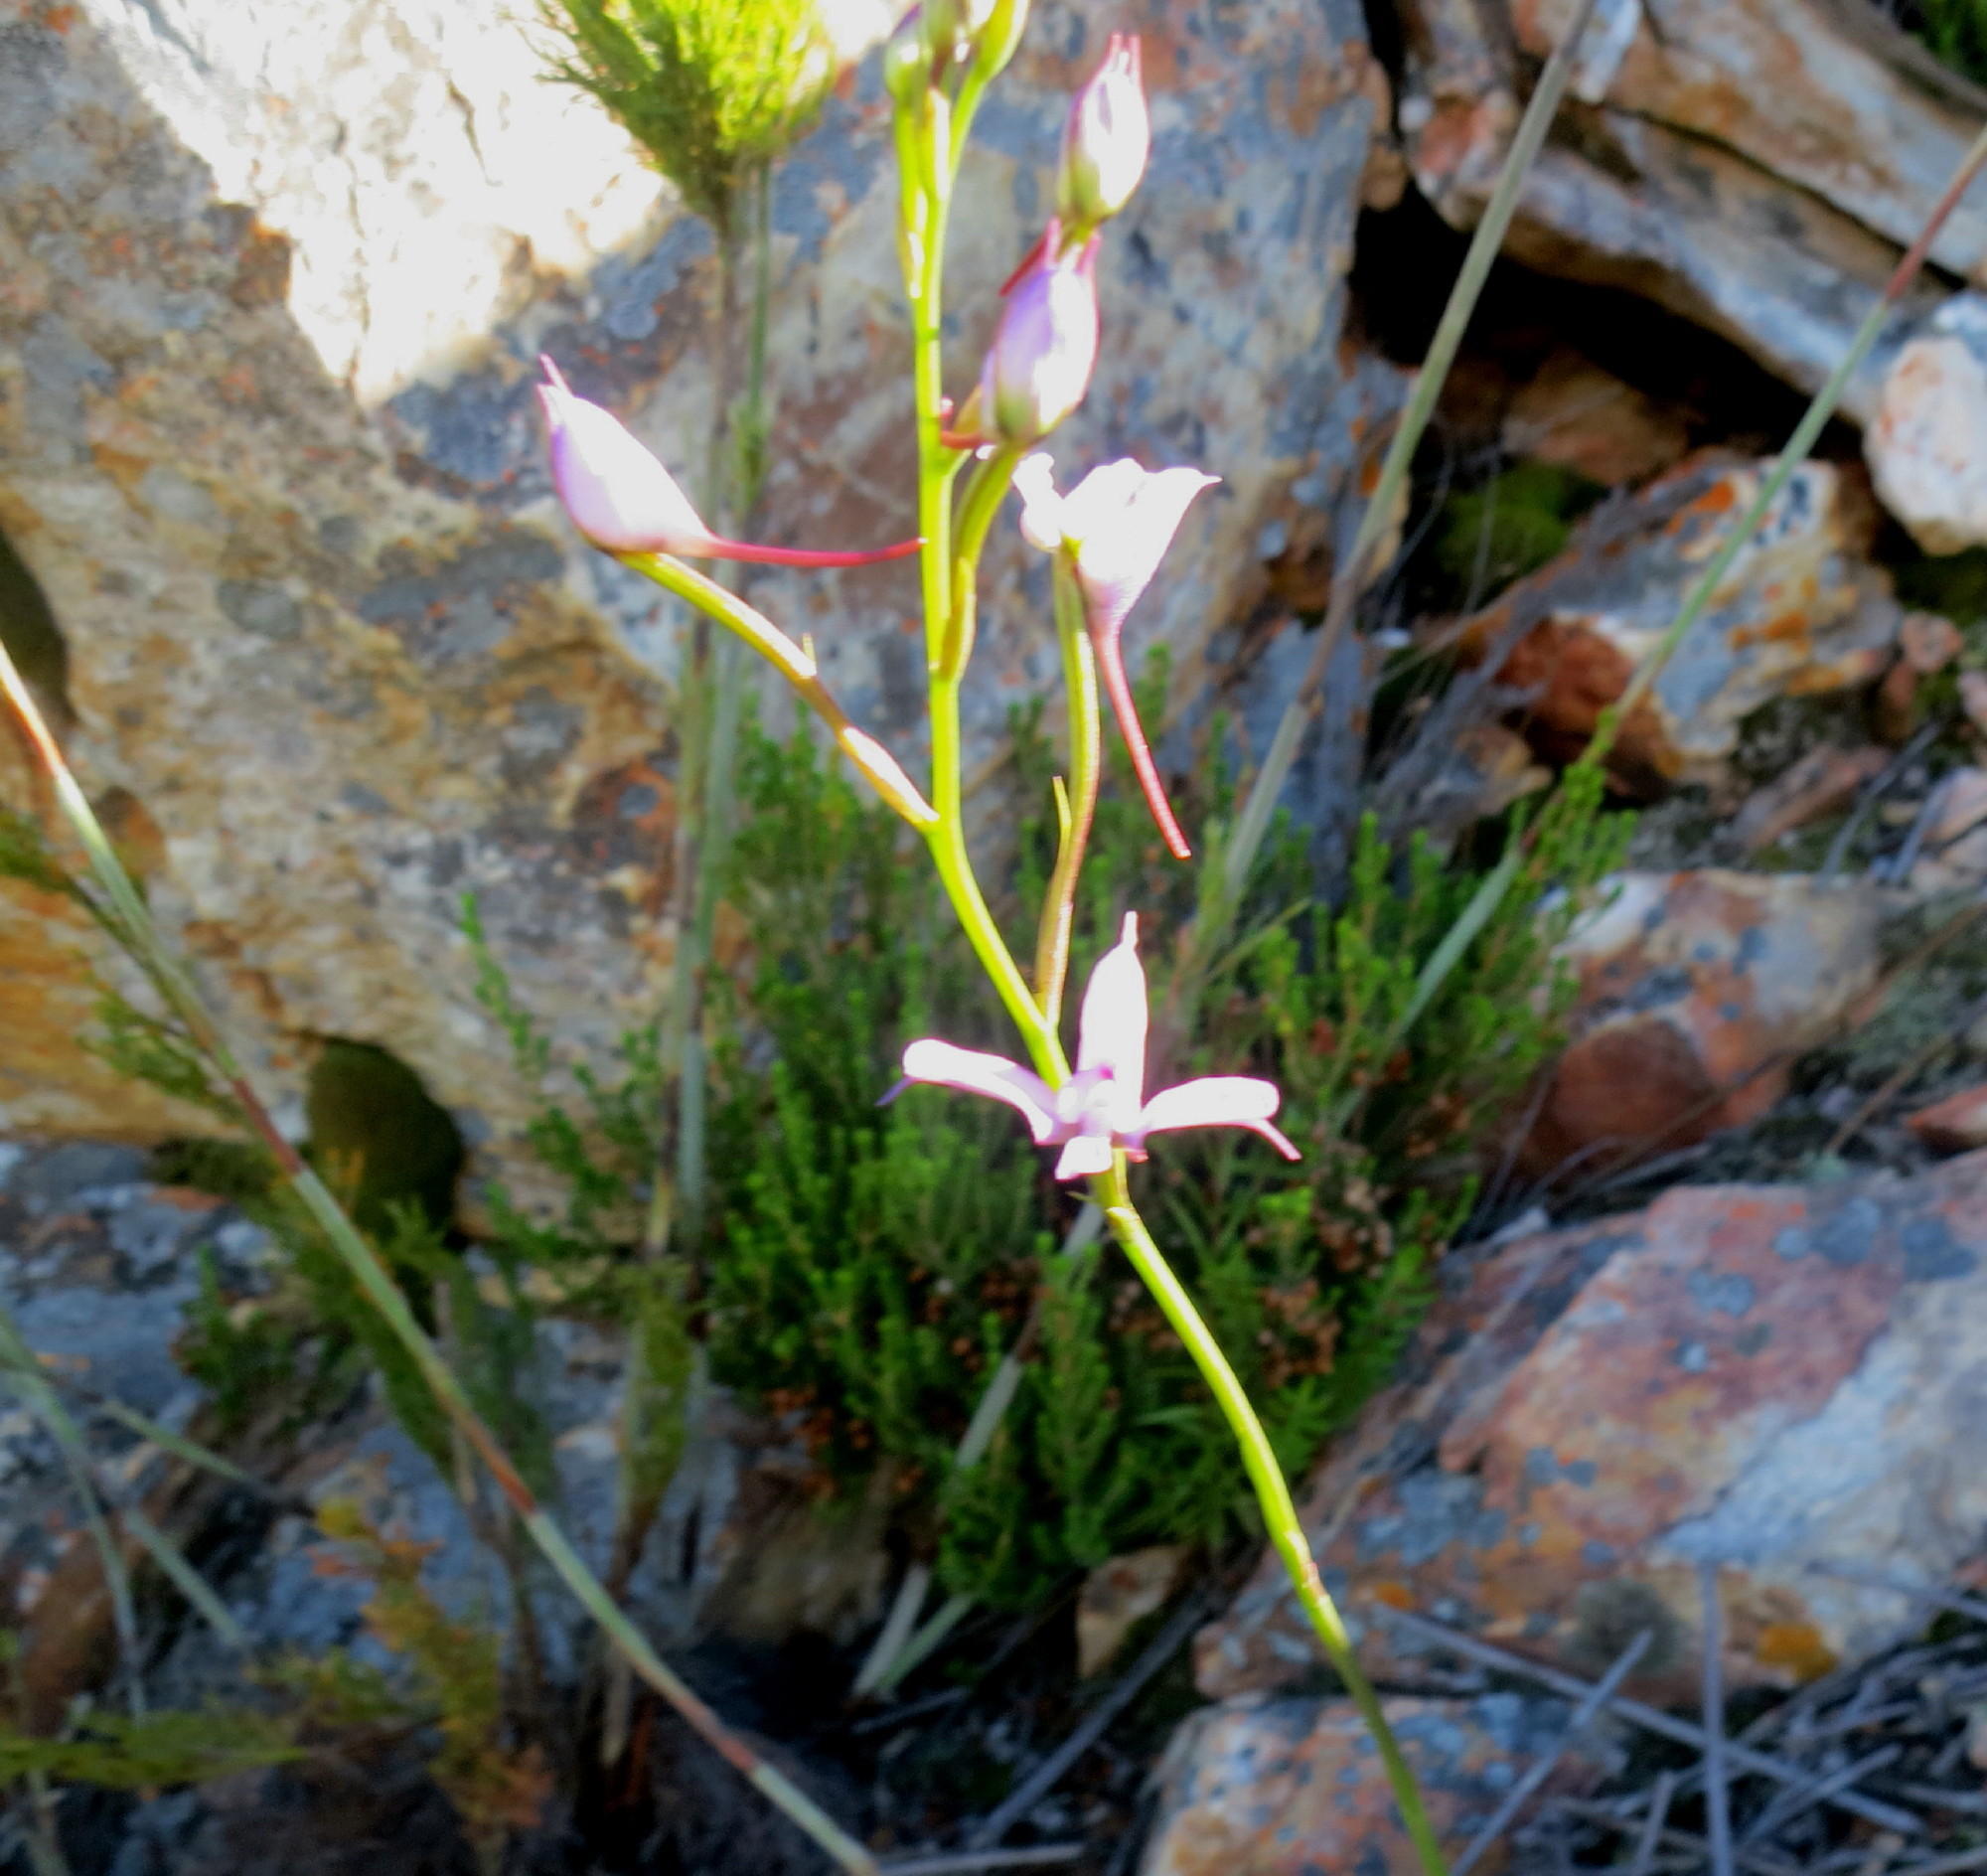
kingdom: Plantae
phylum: Tracheophyta
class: Liliopsida
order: Asparagales
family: Orchidaceae
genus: Disa
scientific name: Disa arida
